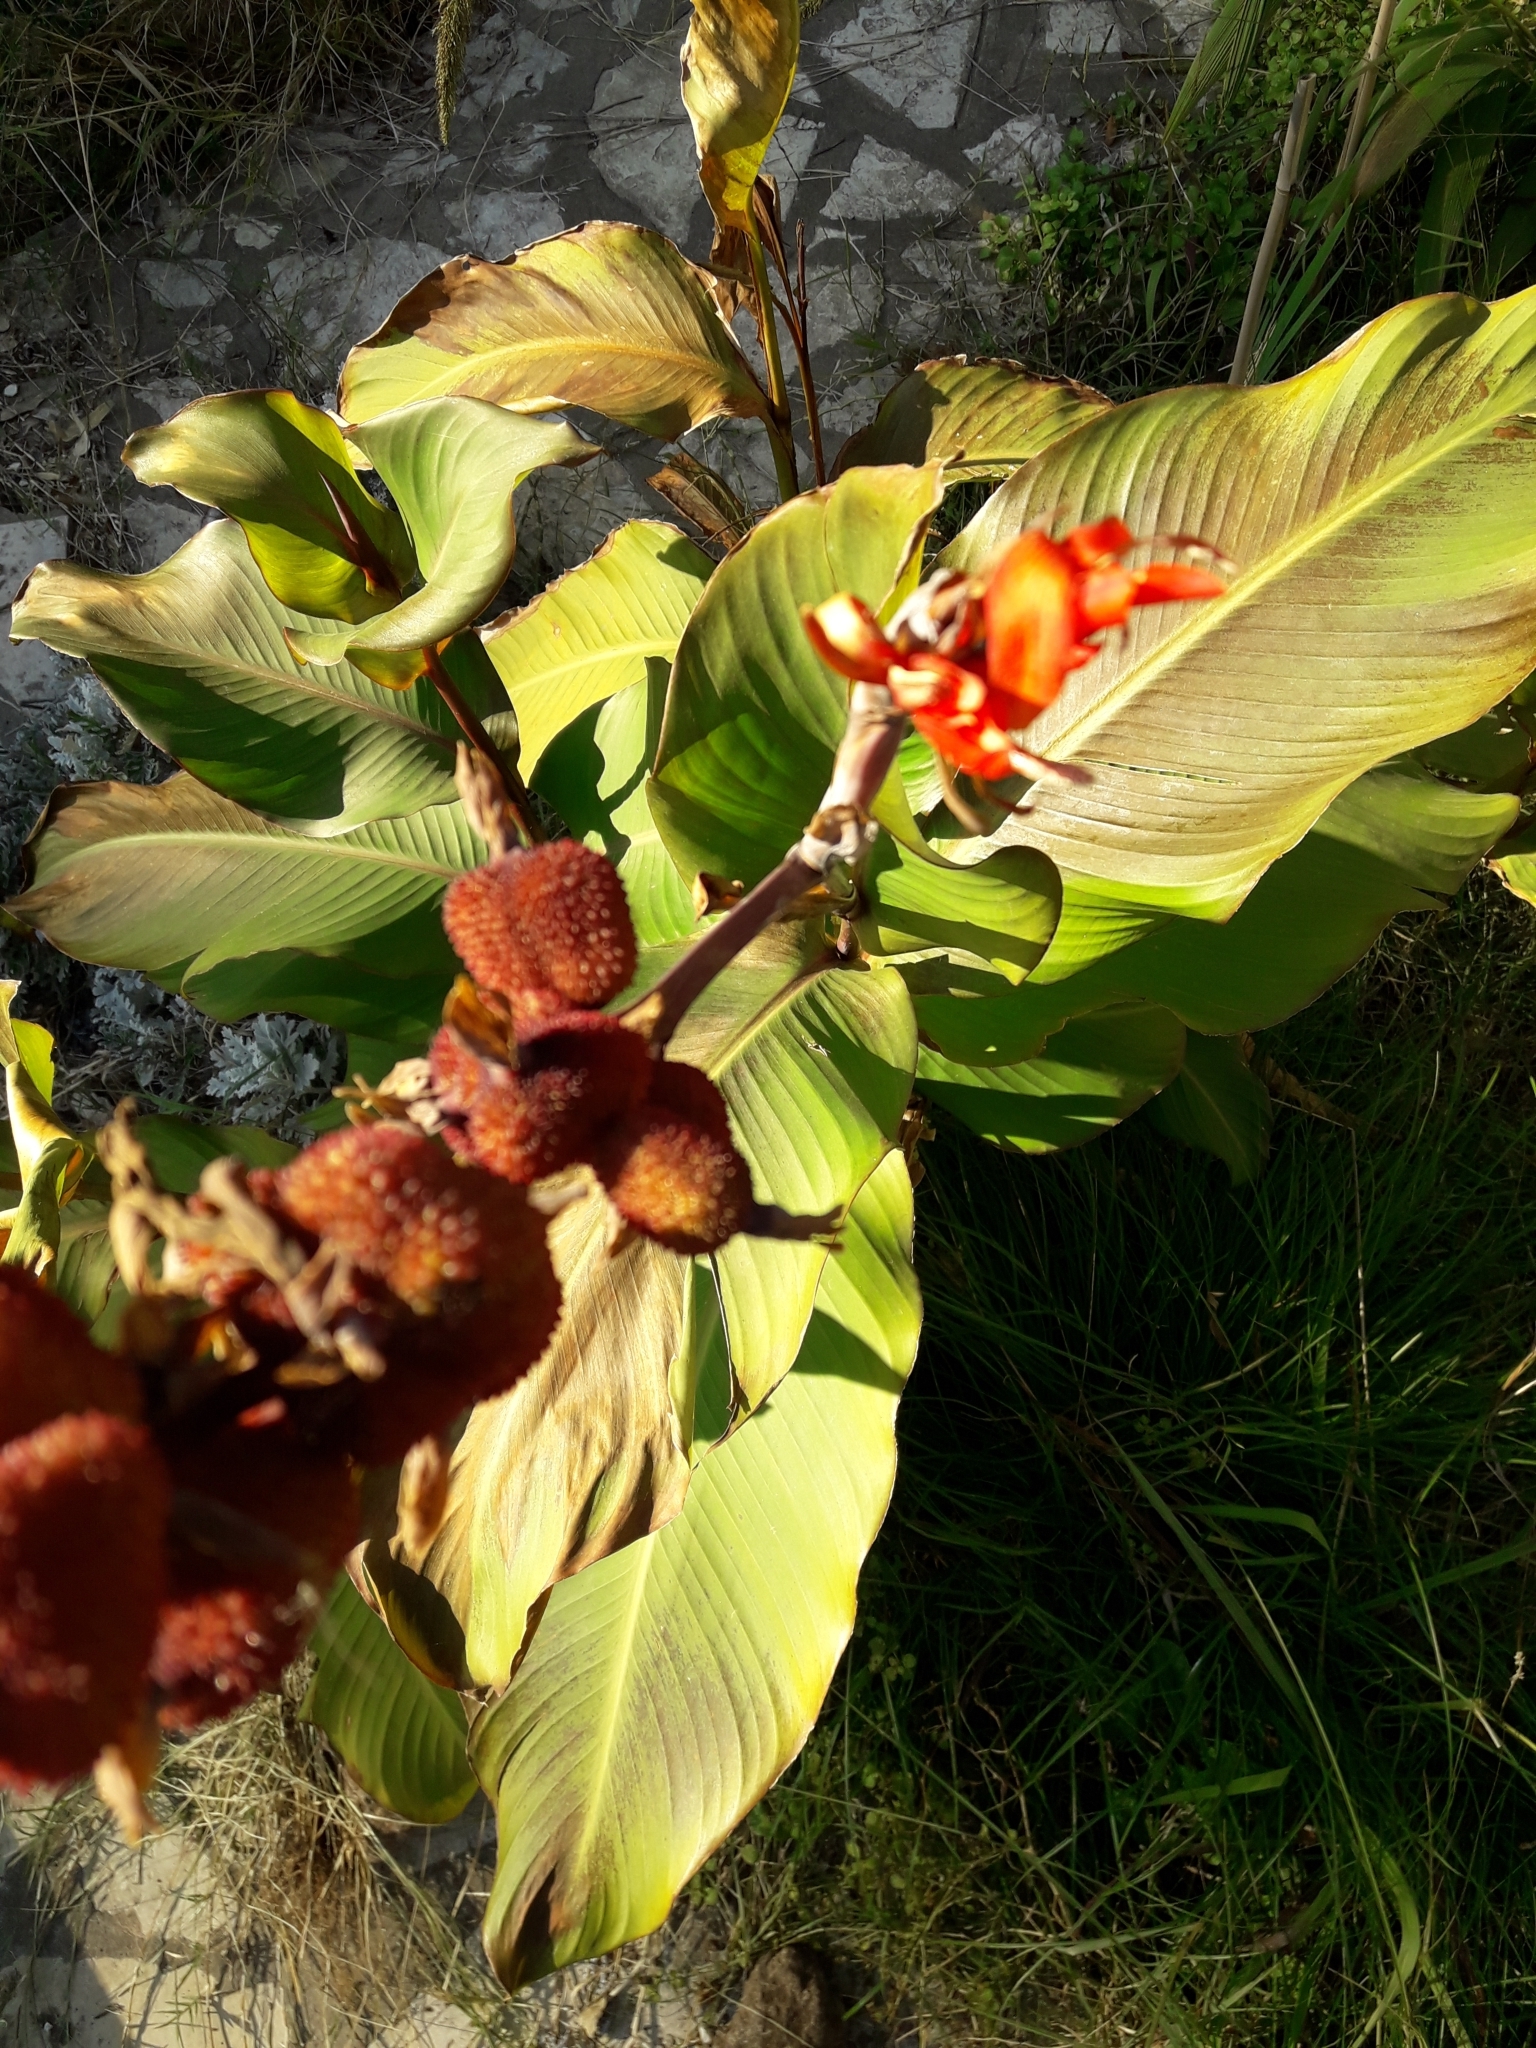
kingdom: Plantae
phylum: Tracheophyta
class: Liliopsida
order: Zingiberales
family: Cannaceae
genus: Canna
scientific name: Canna hybrida
